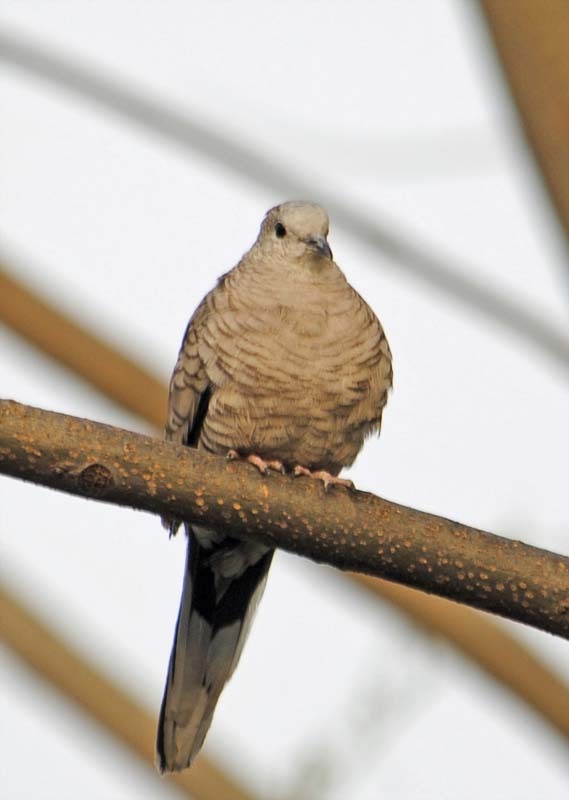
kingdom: Animalia
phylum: Chordata
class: Aves
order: Columbiformes
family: Columbidae
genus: Columbina
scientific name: Columbina inca
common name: Inca dove
